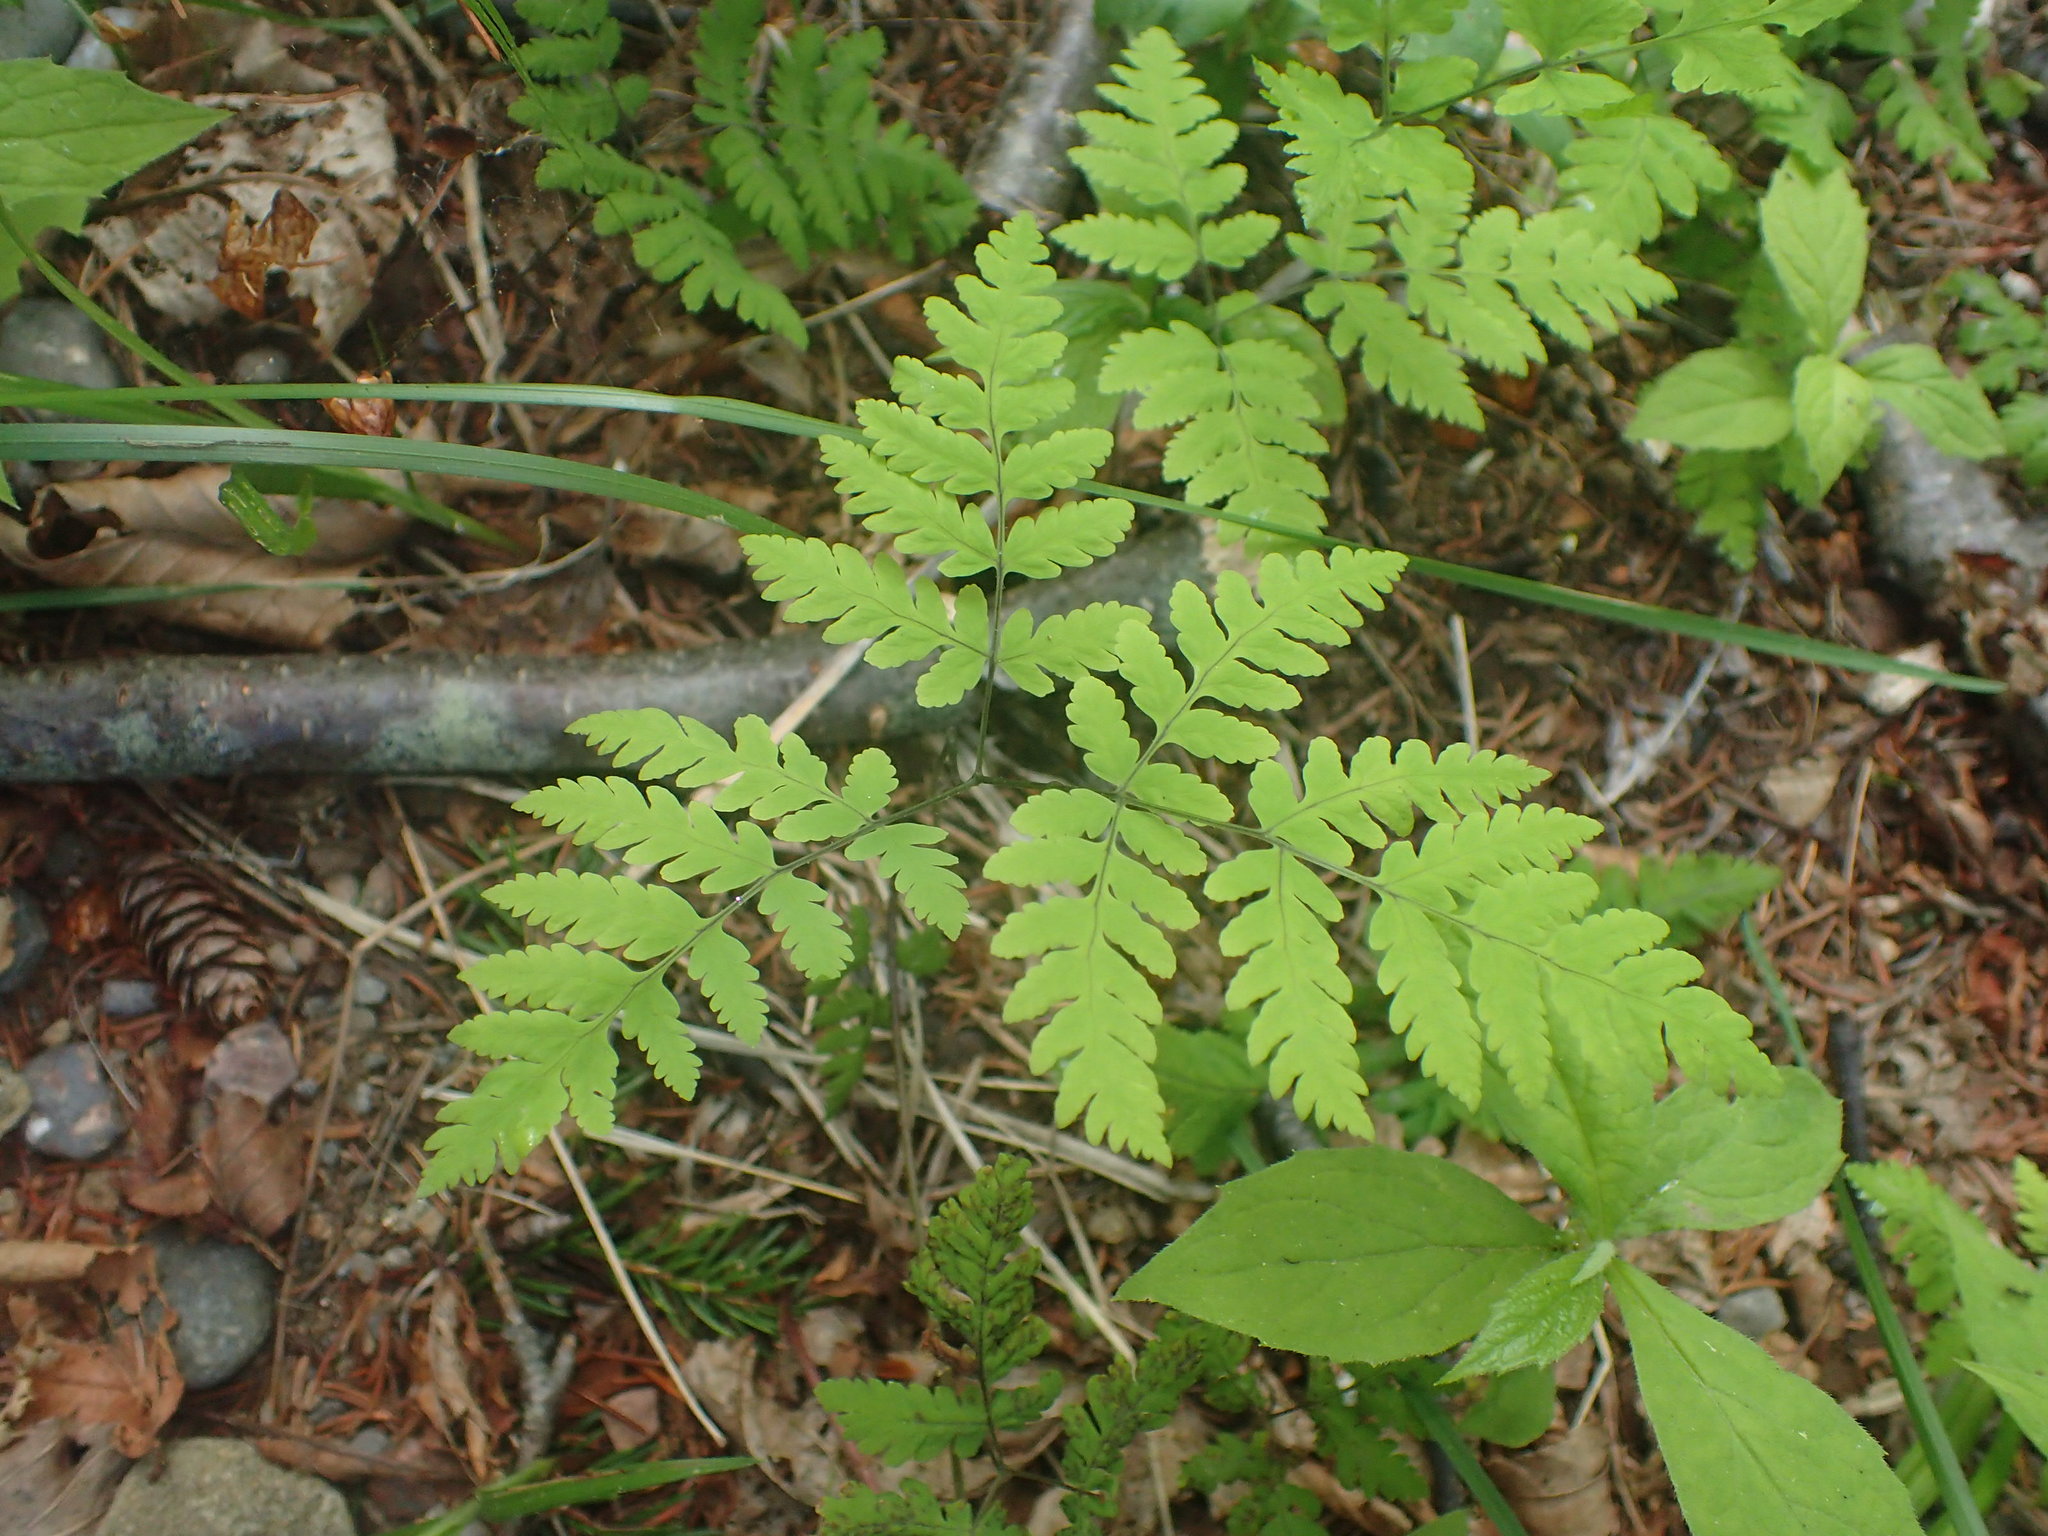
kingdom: Plantae
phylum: Tracheophyta
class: Polypodiopsida
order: Polypodiales
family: Cystopteridaceae
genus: Gymnocarpium
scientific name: Gymnocarpium dryopteris
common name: Oak fern
